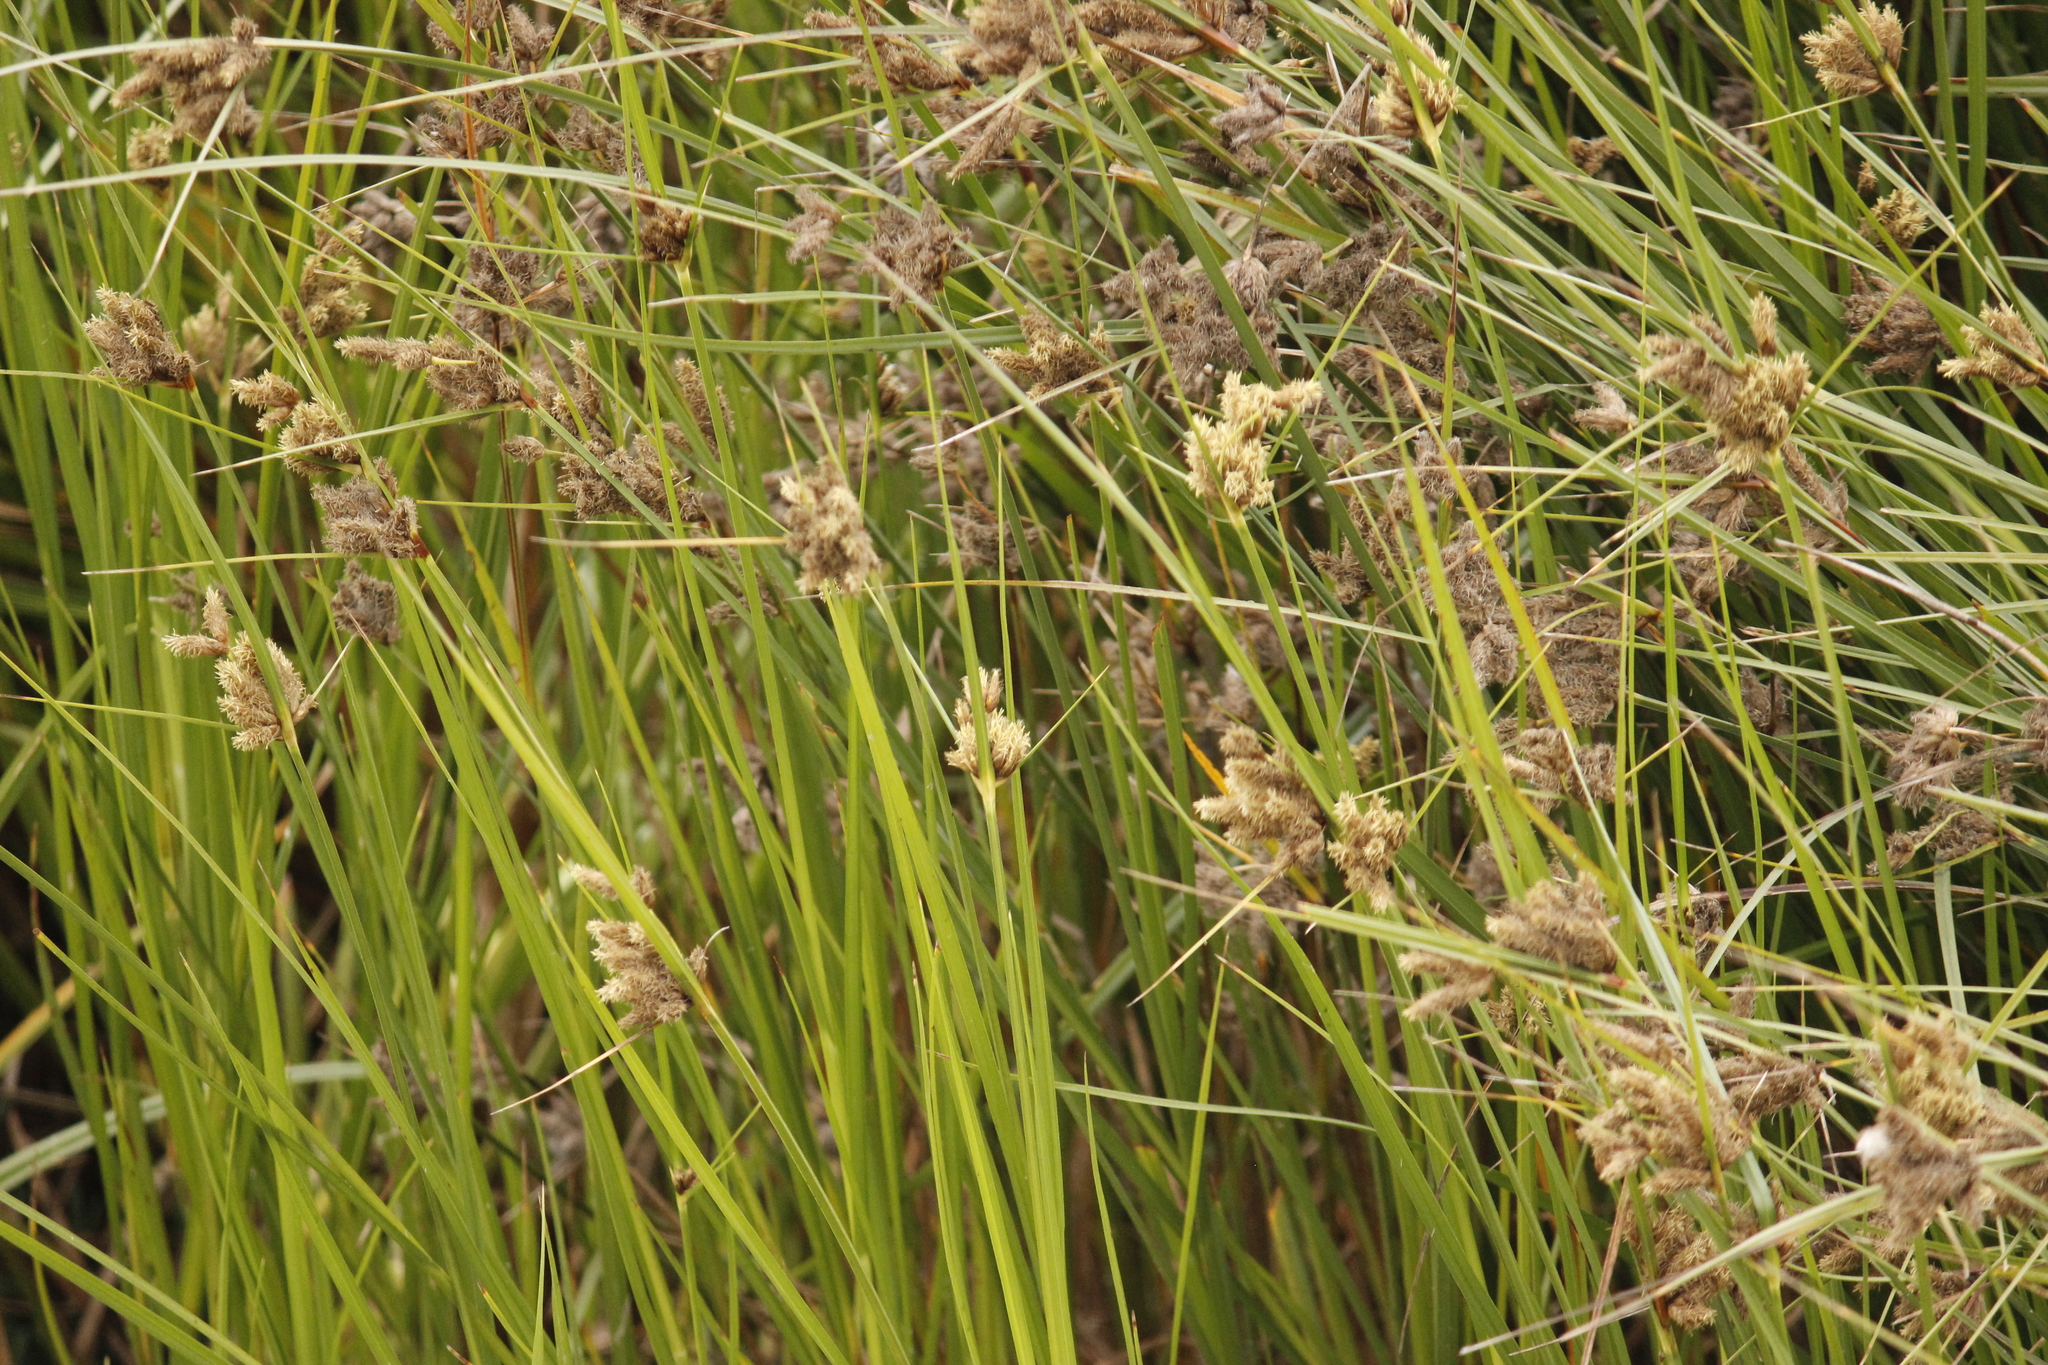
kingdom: Plantae
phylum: Tracheophyta
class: Liliopsida
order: Poales
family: Cyperaceae
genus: Schoenoplectus
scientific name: Schoenoplectus americanus
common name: American three-square bulrush
